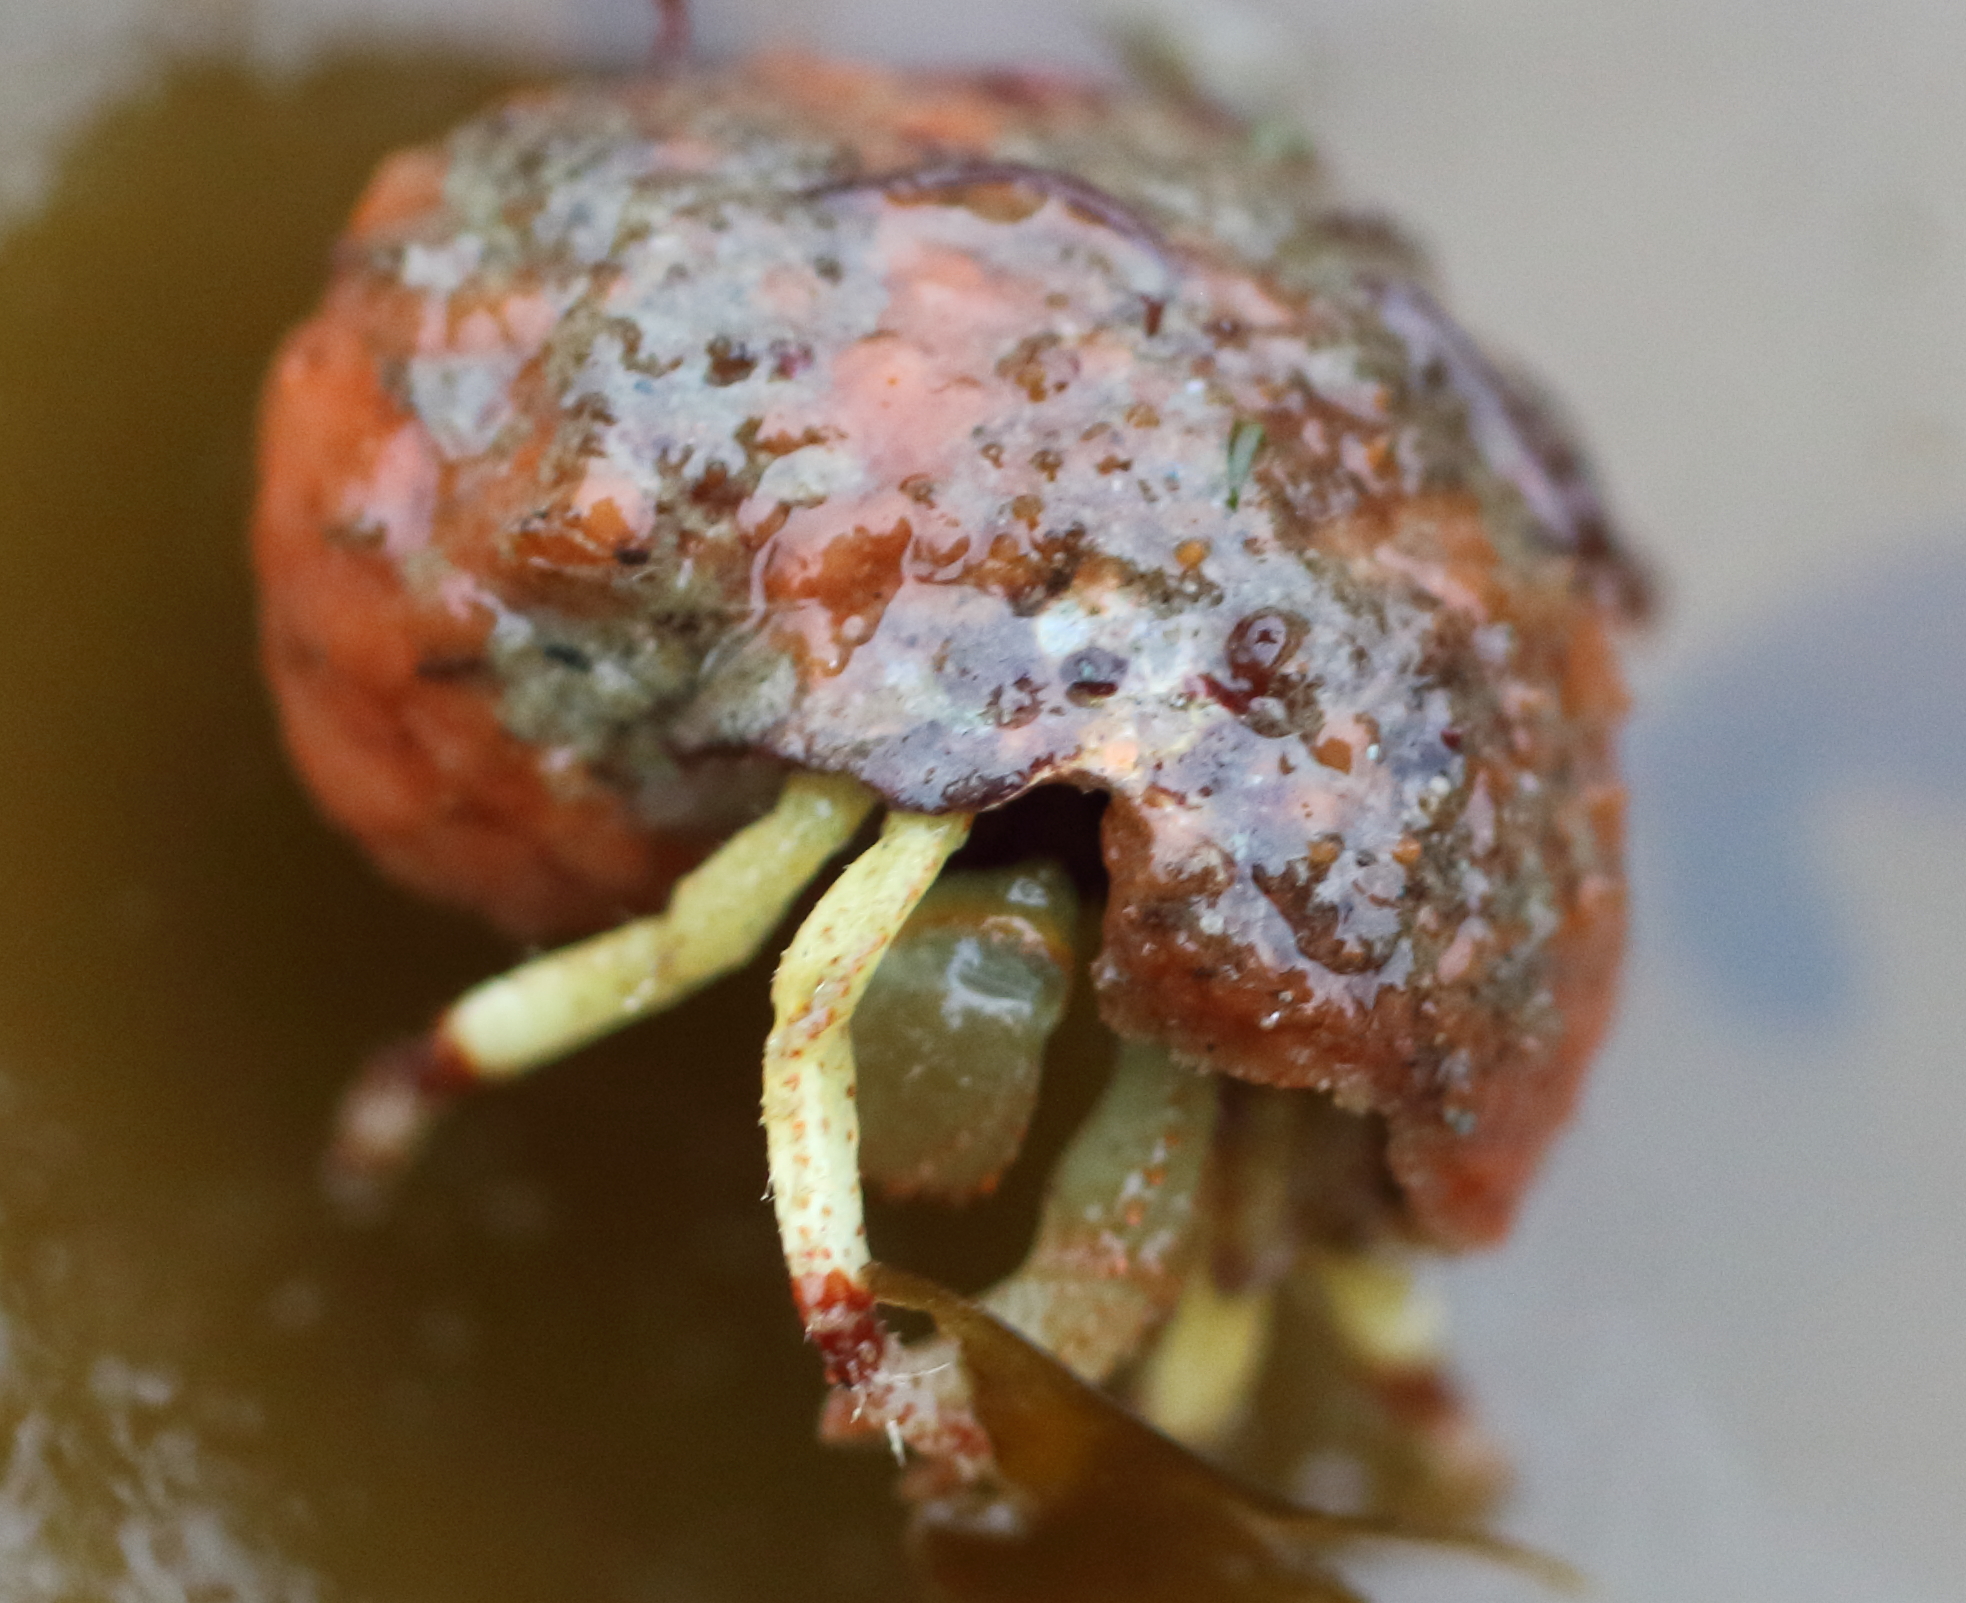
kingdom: Animalia
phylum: Arthropoda
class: Malacostraca
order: Decapoda
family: Paguridae
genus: Pagurus
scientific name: Pagurus beringanus
